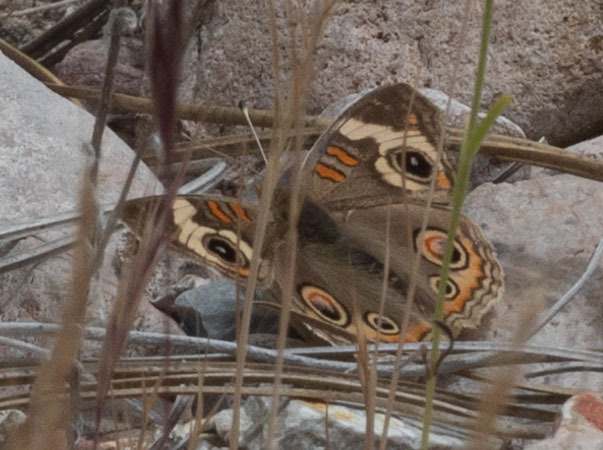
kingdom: Animalia
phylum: Arthropoda
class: Insecta
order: Lepidoptera
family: Nymphalidae
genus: Junonia
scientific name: Junonia grisea
